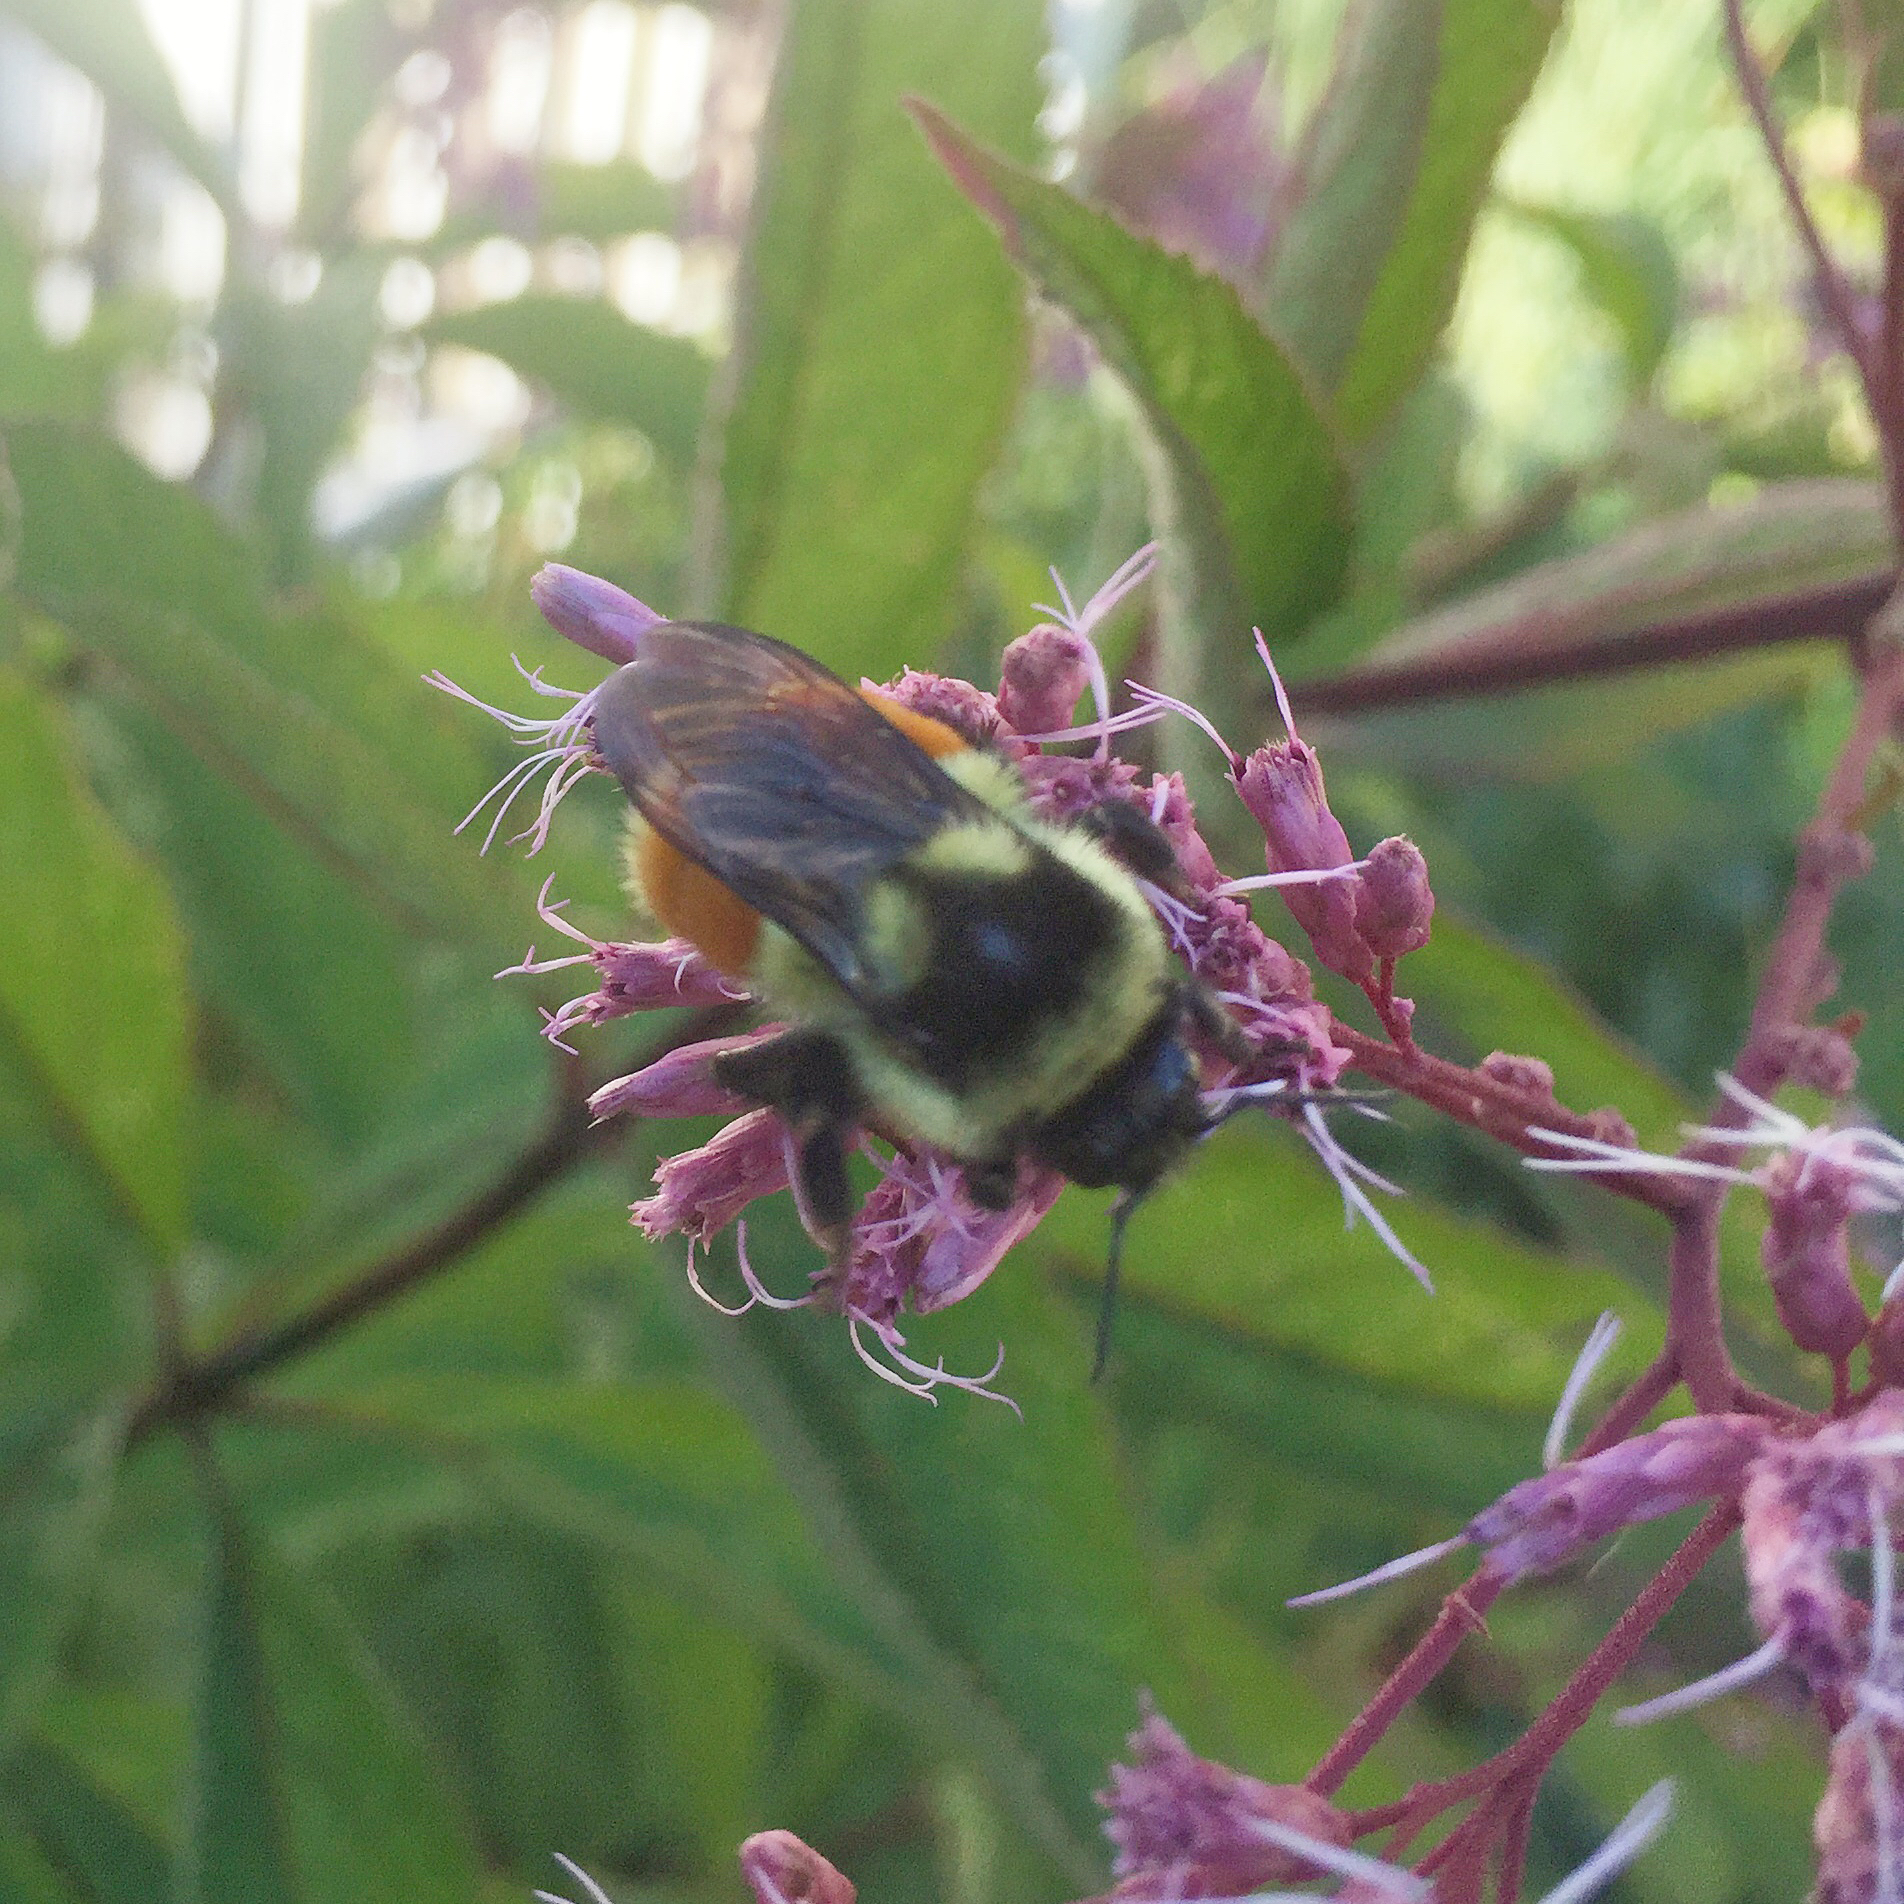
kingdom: Animalia
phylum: Arthropoda
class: Insecta
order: Hymenoptera
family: Apidae
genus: Bombus
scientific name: Bombus ternarius
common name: Tri-colored bumble bee
